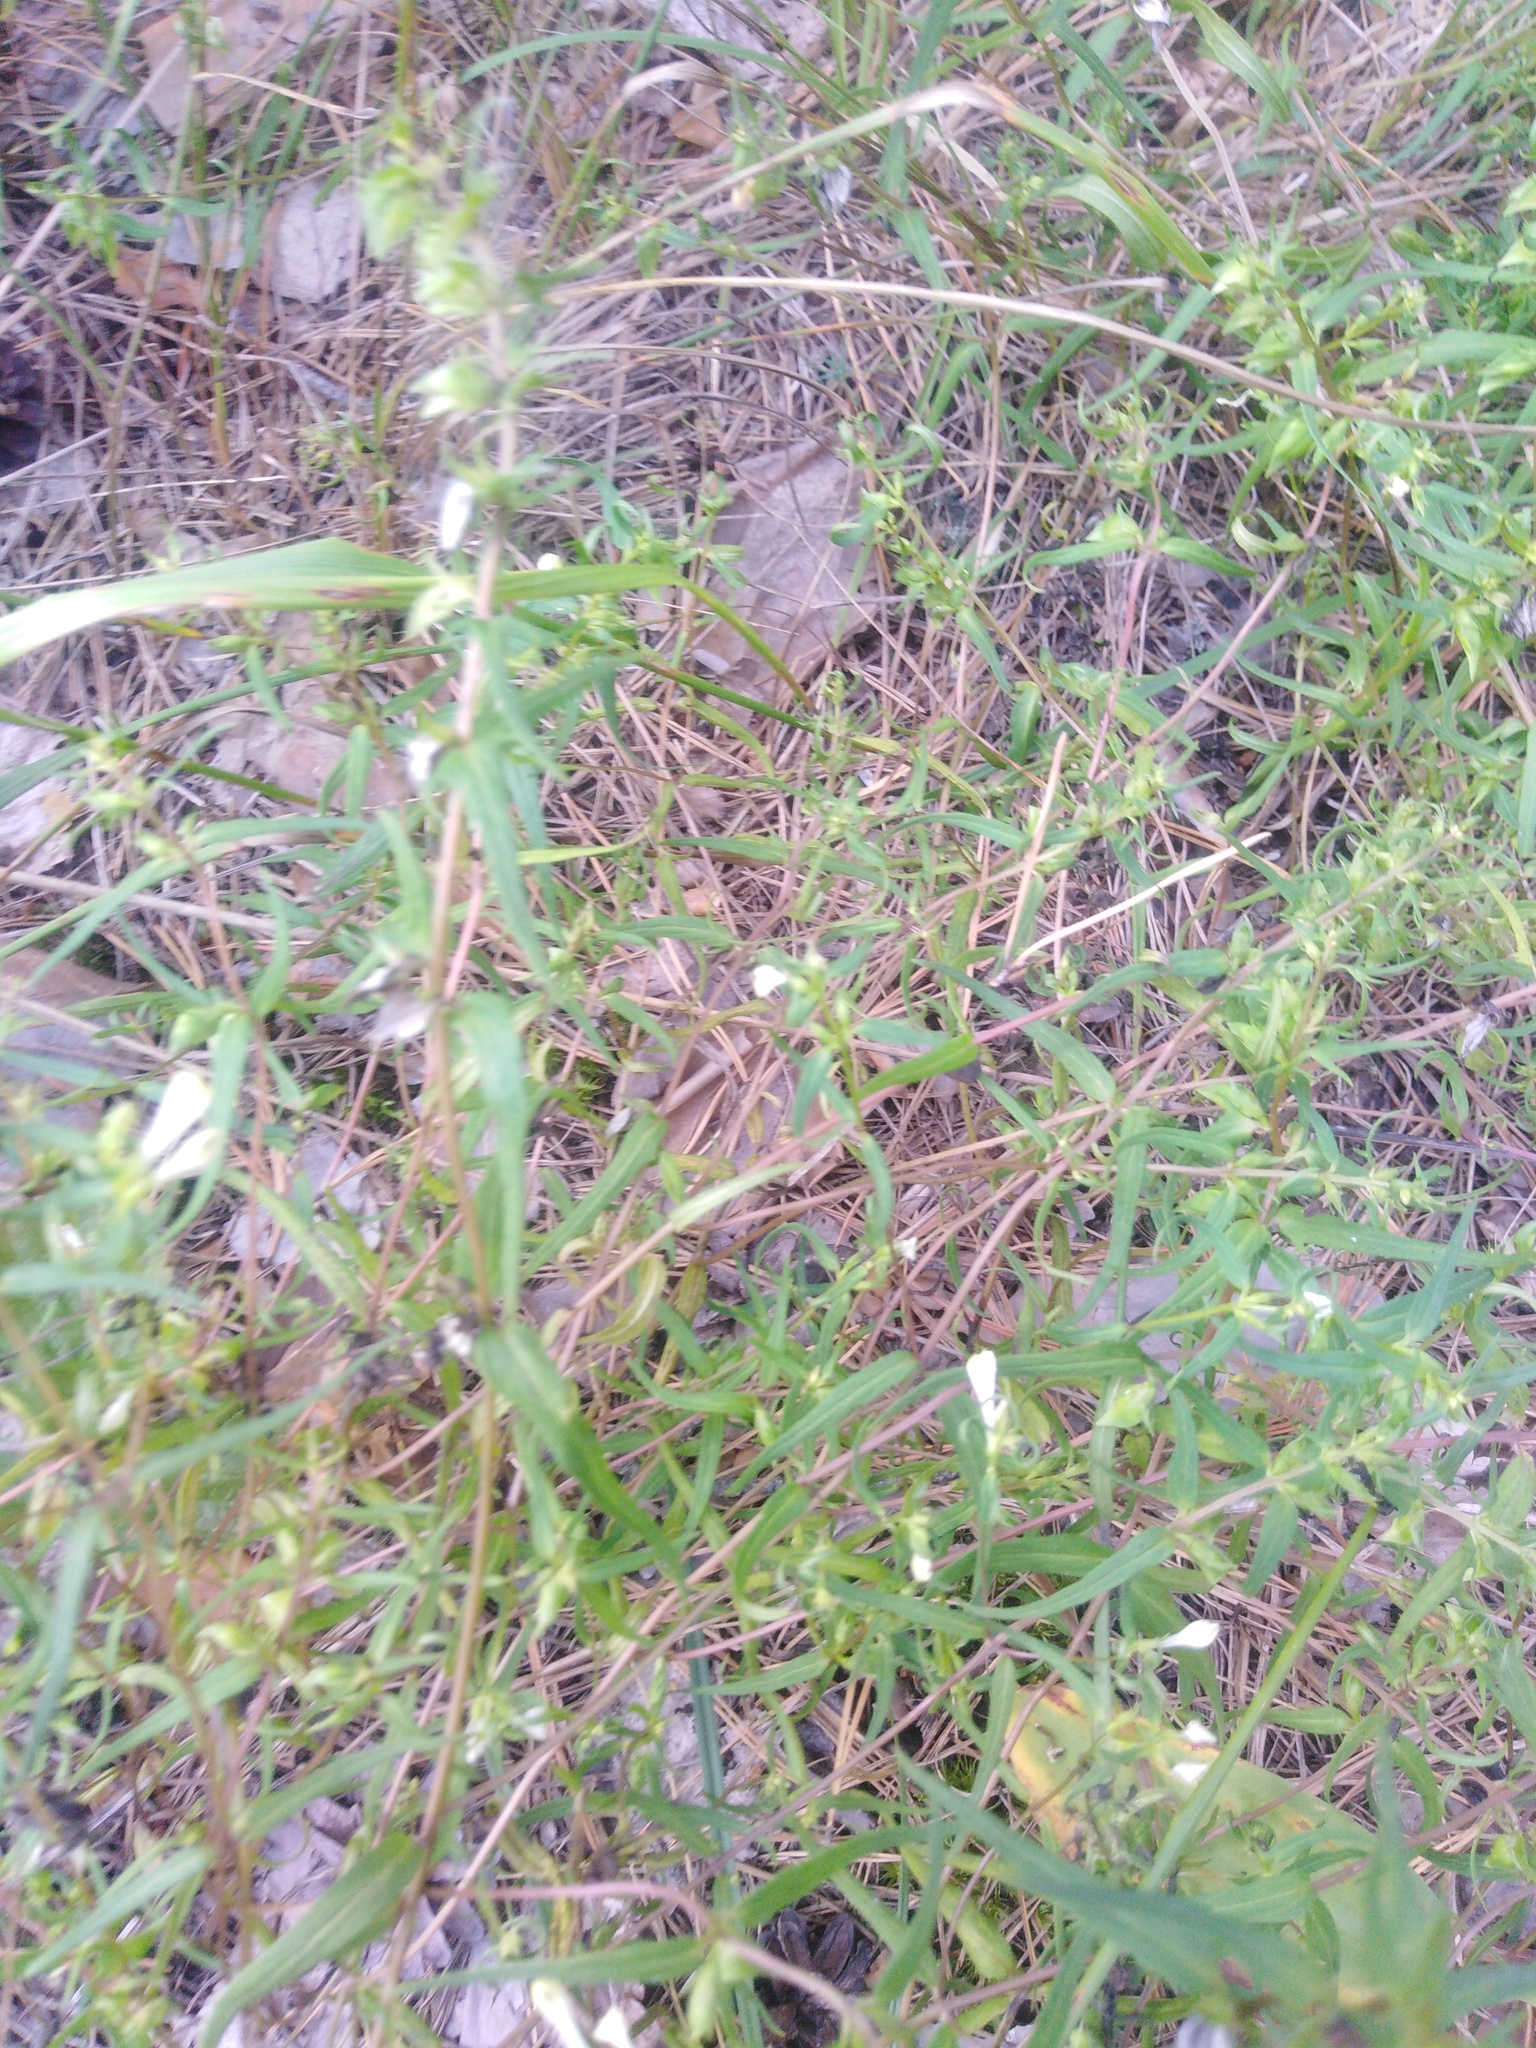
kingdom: Plantae
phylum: Tracheophyta
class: Magnoliopsida
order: Lamiales
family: Orobanchaceae
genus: Melampyrum
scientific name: Melampyrum pratense
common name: Common cow-wheat
